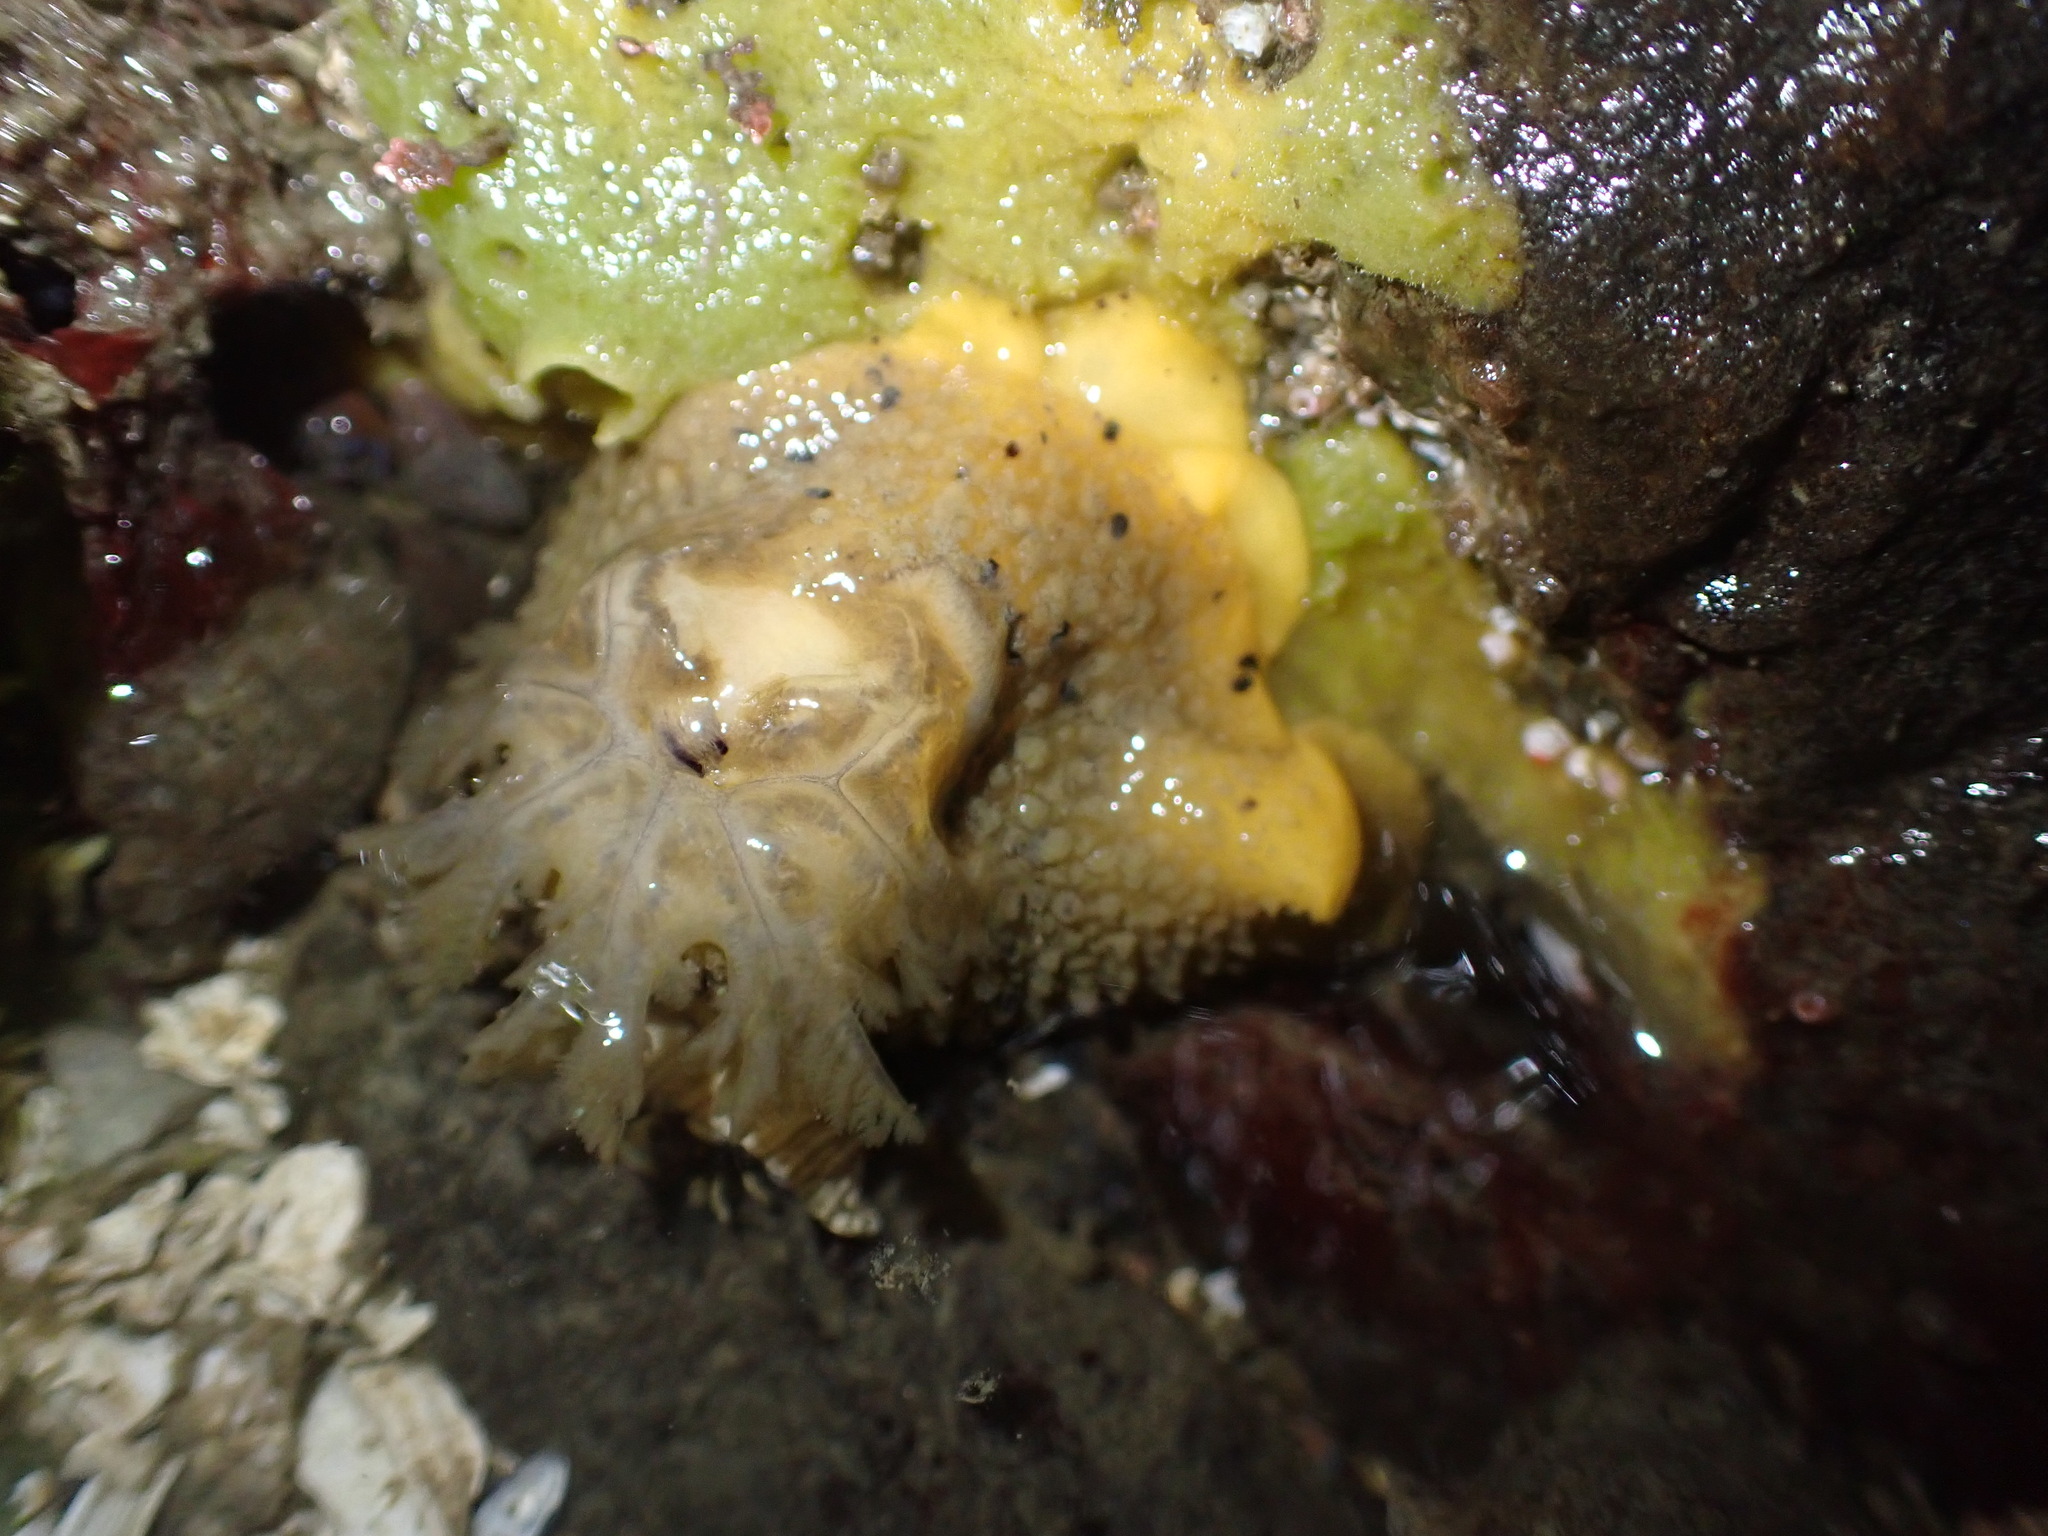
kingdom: Animalia
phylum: Mollusca
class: Gastropoda
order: Nudibranchia
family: Dorididae
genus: Doris
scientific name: Doris montereyensis
